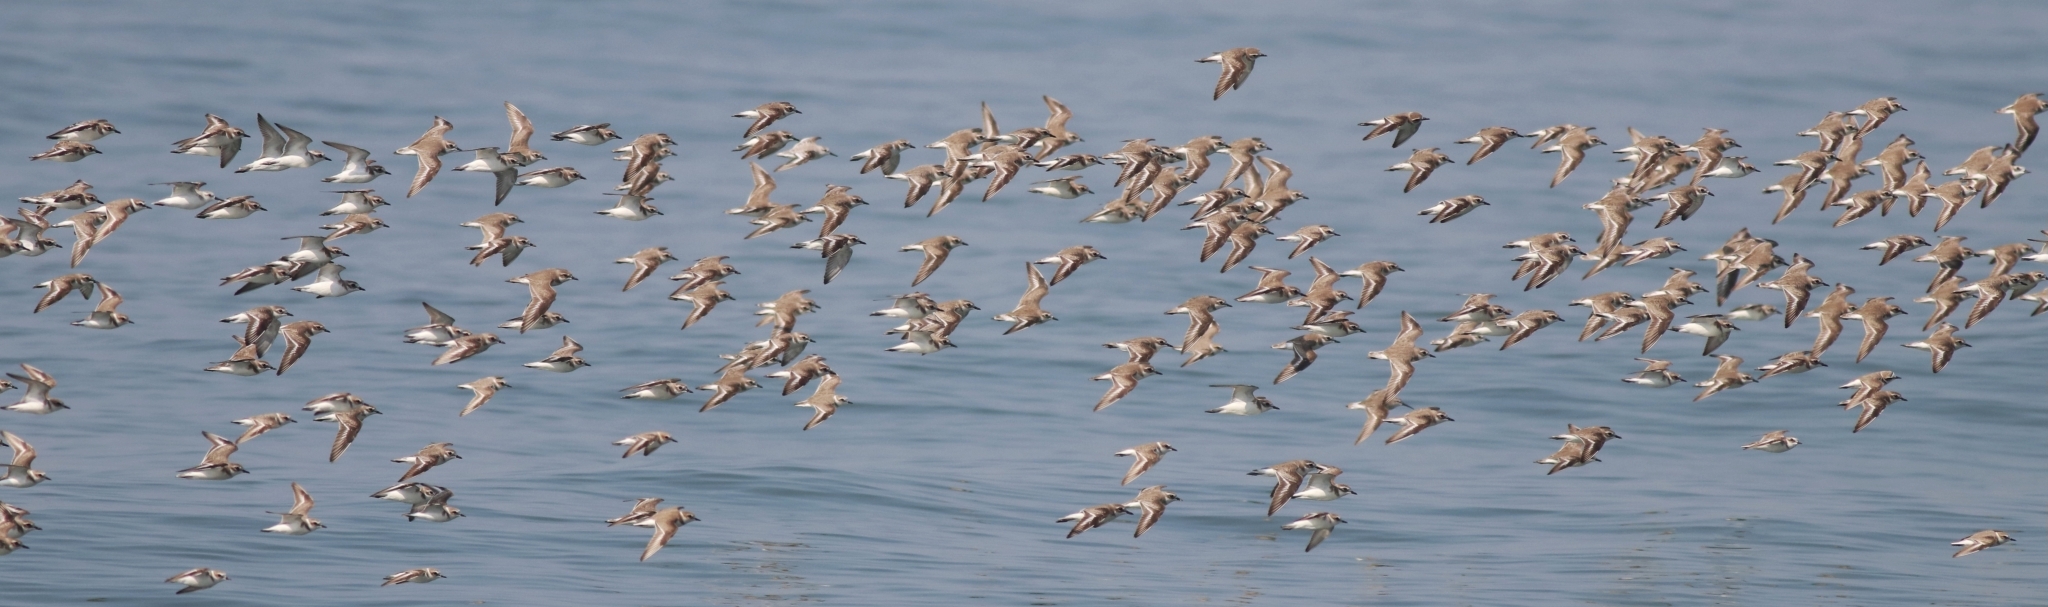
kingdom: Animalia
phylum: Chordata
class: Aves
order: Charadriiformes
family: Charadriidae
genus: Anarhynchus
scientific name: Anarhynchus
